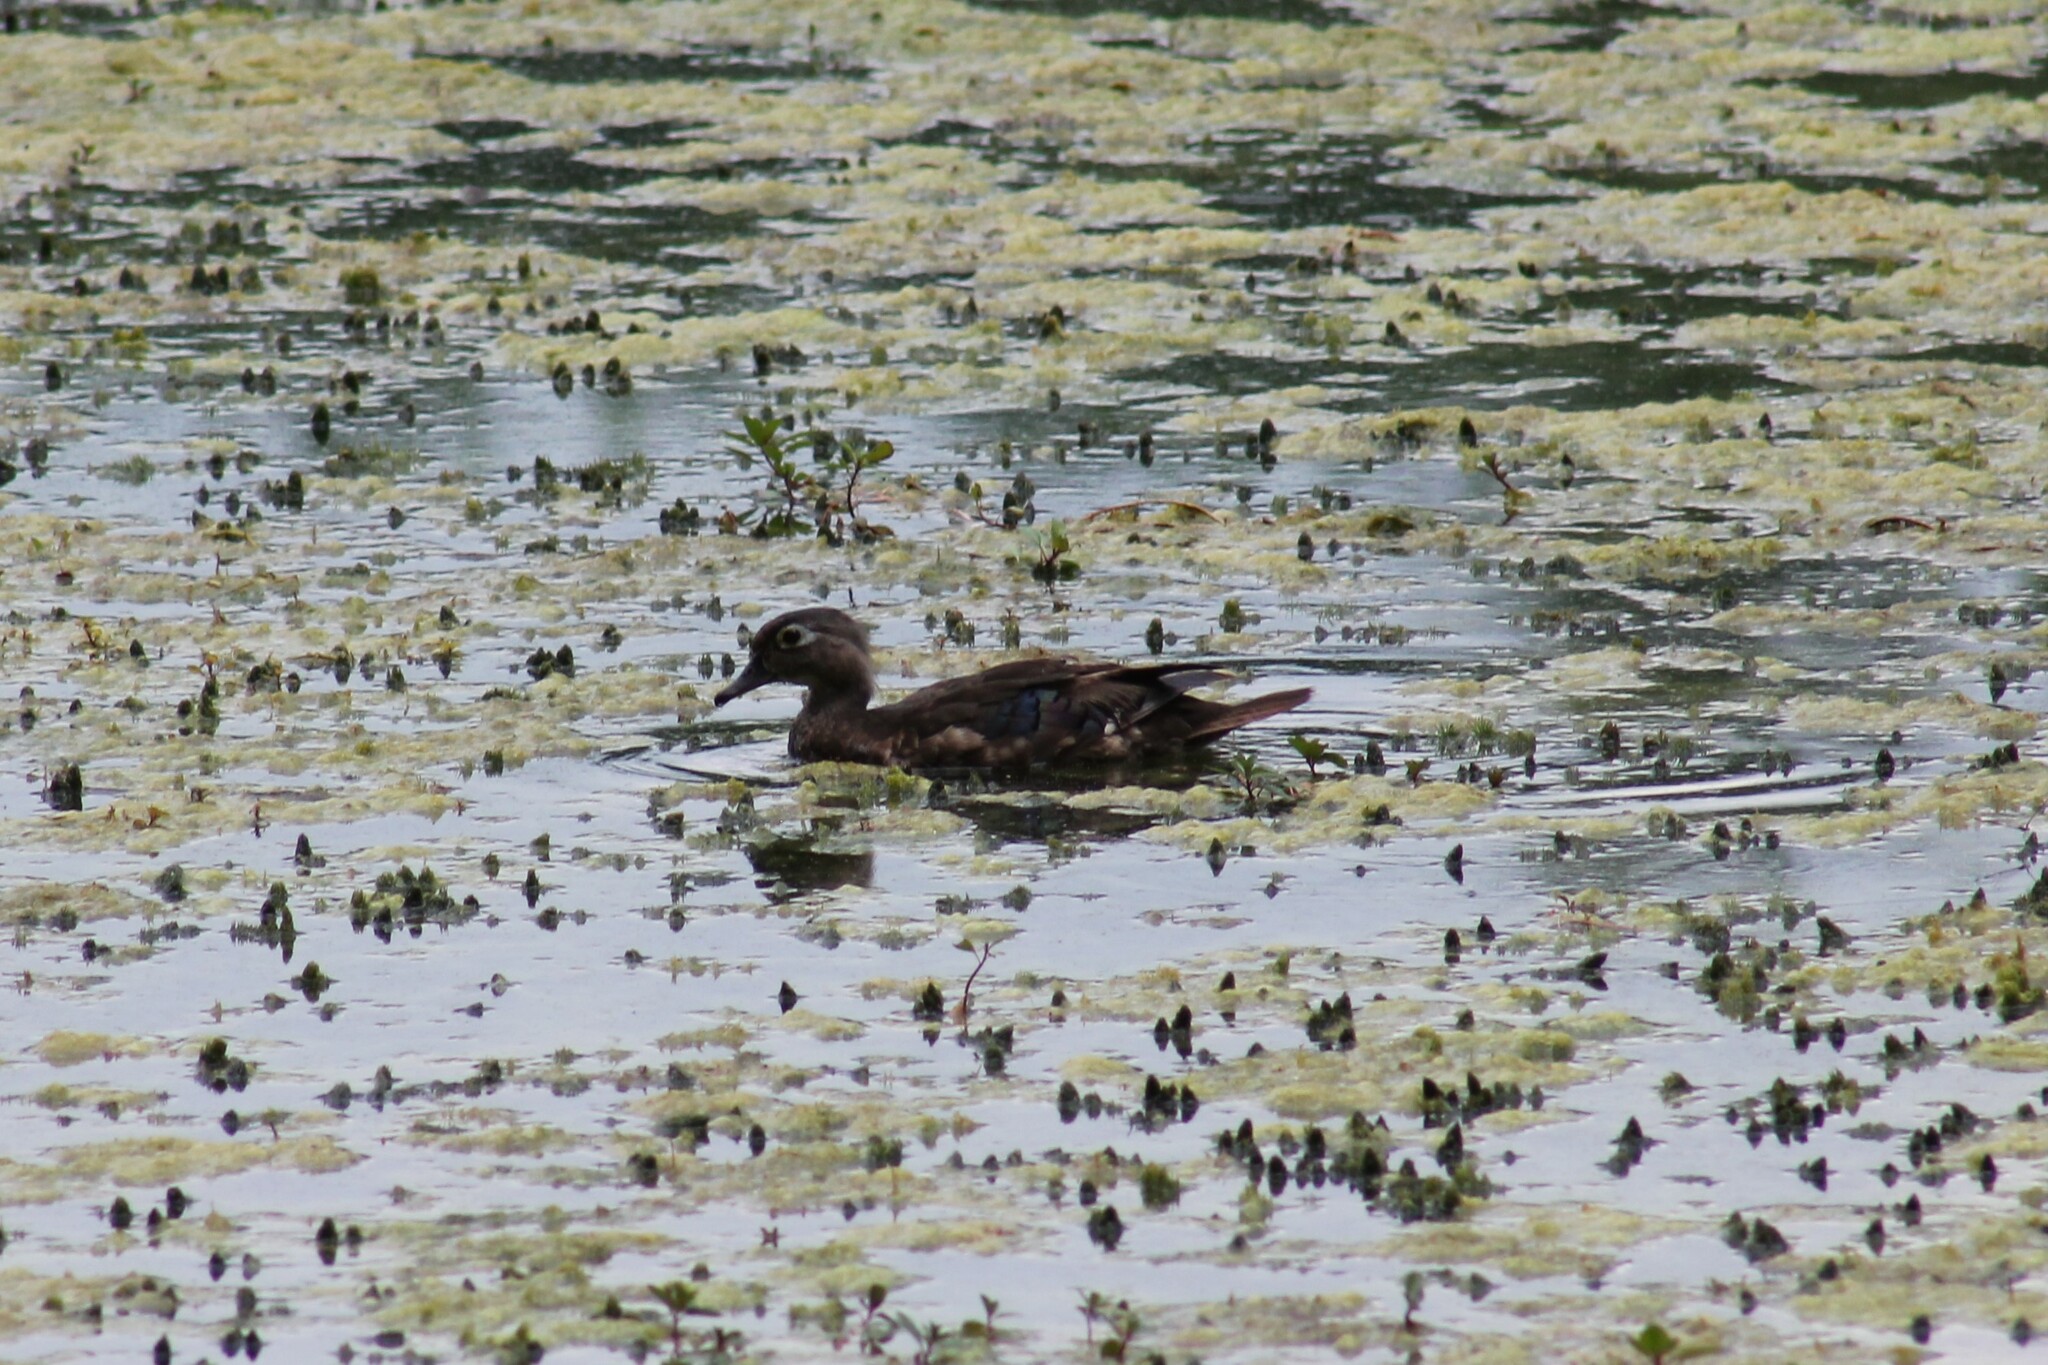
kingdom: Animalia
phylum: Chordata
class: Aves
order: Anseriformes
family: Anatidae
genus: Aix
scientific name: Aix sponsa
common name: Wood duck
